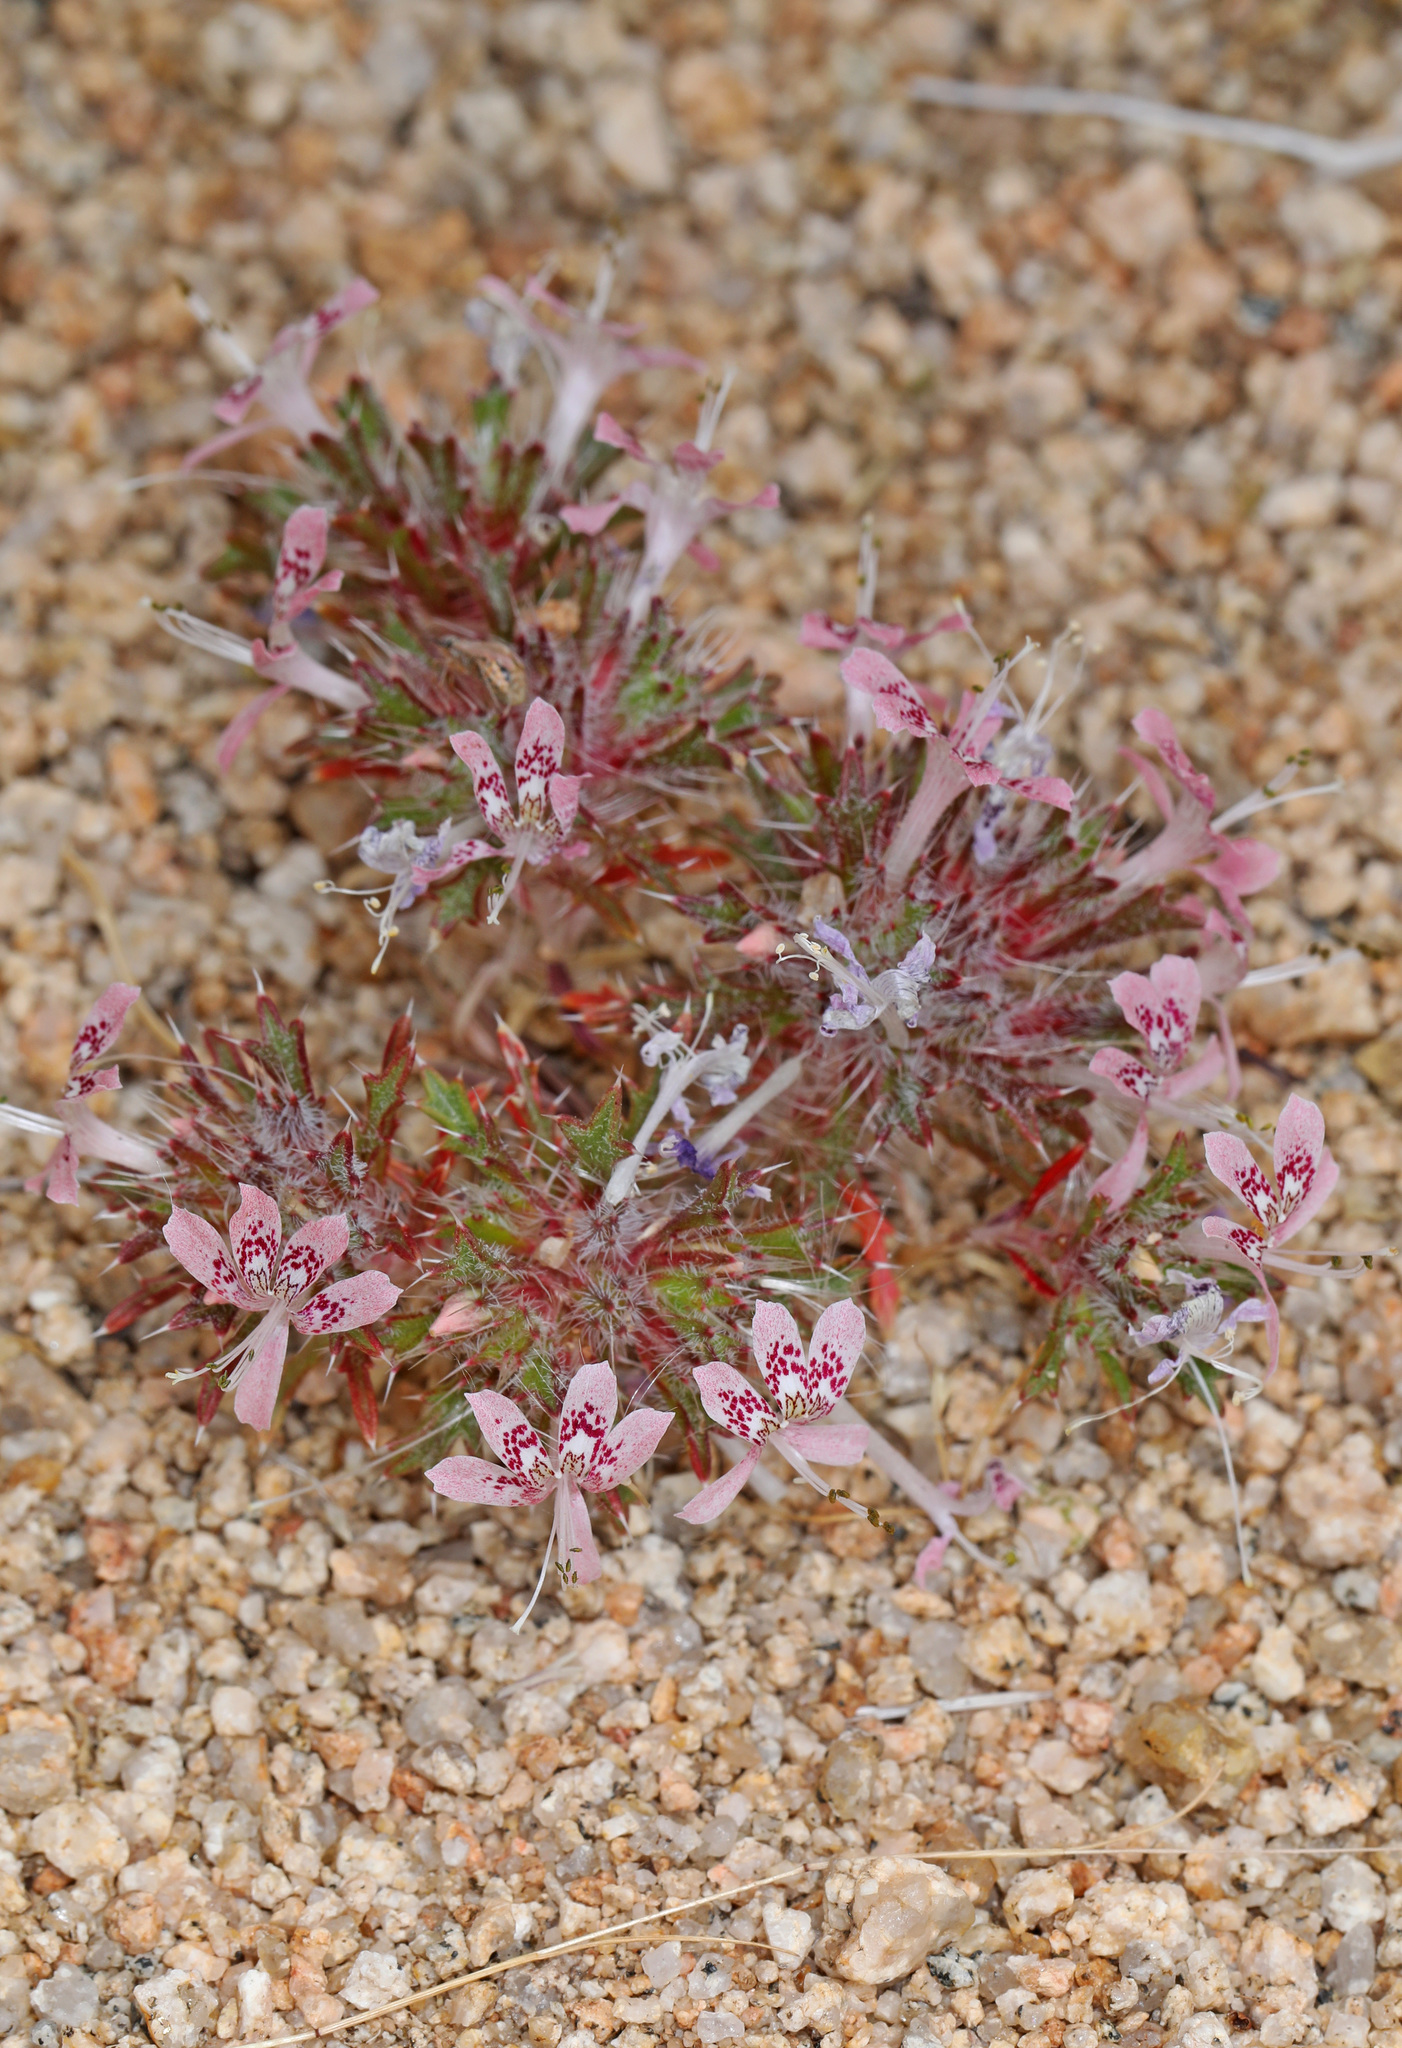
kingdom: Plantae
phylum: Tracheophyta
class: Magnoliopsida
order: Ericales
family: Polemoniaceae
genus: Loeseliastrum
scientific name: Loeseliastrum matthewsii
